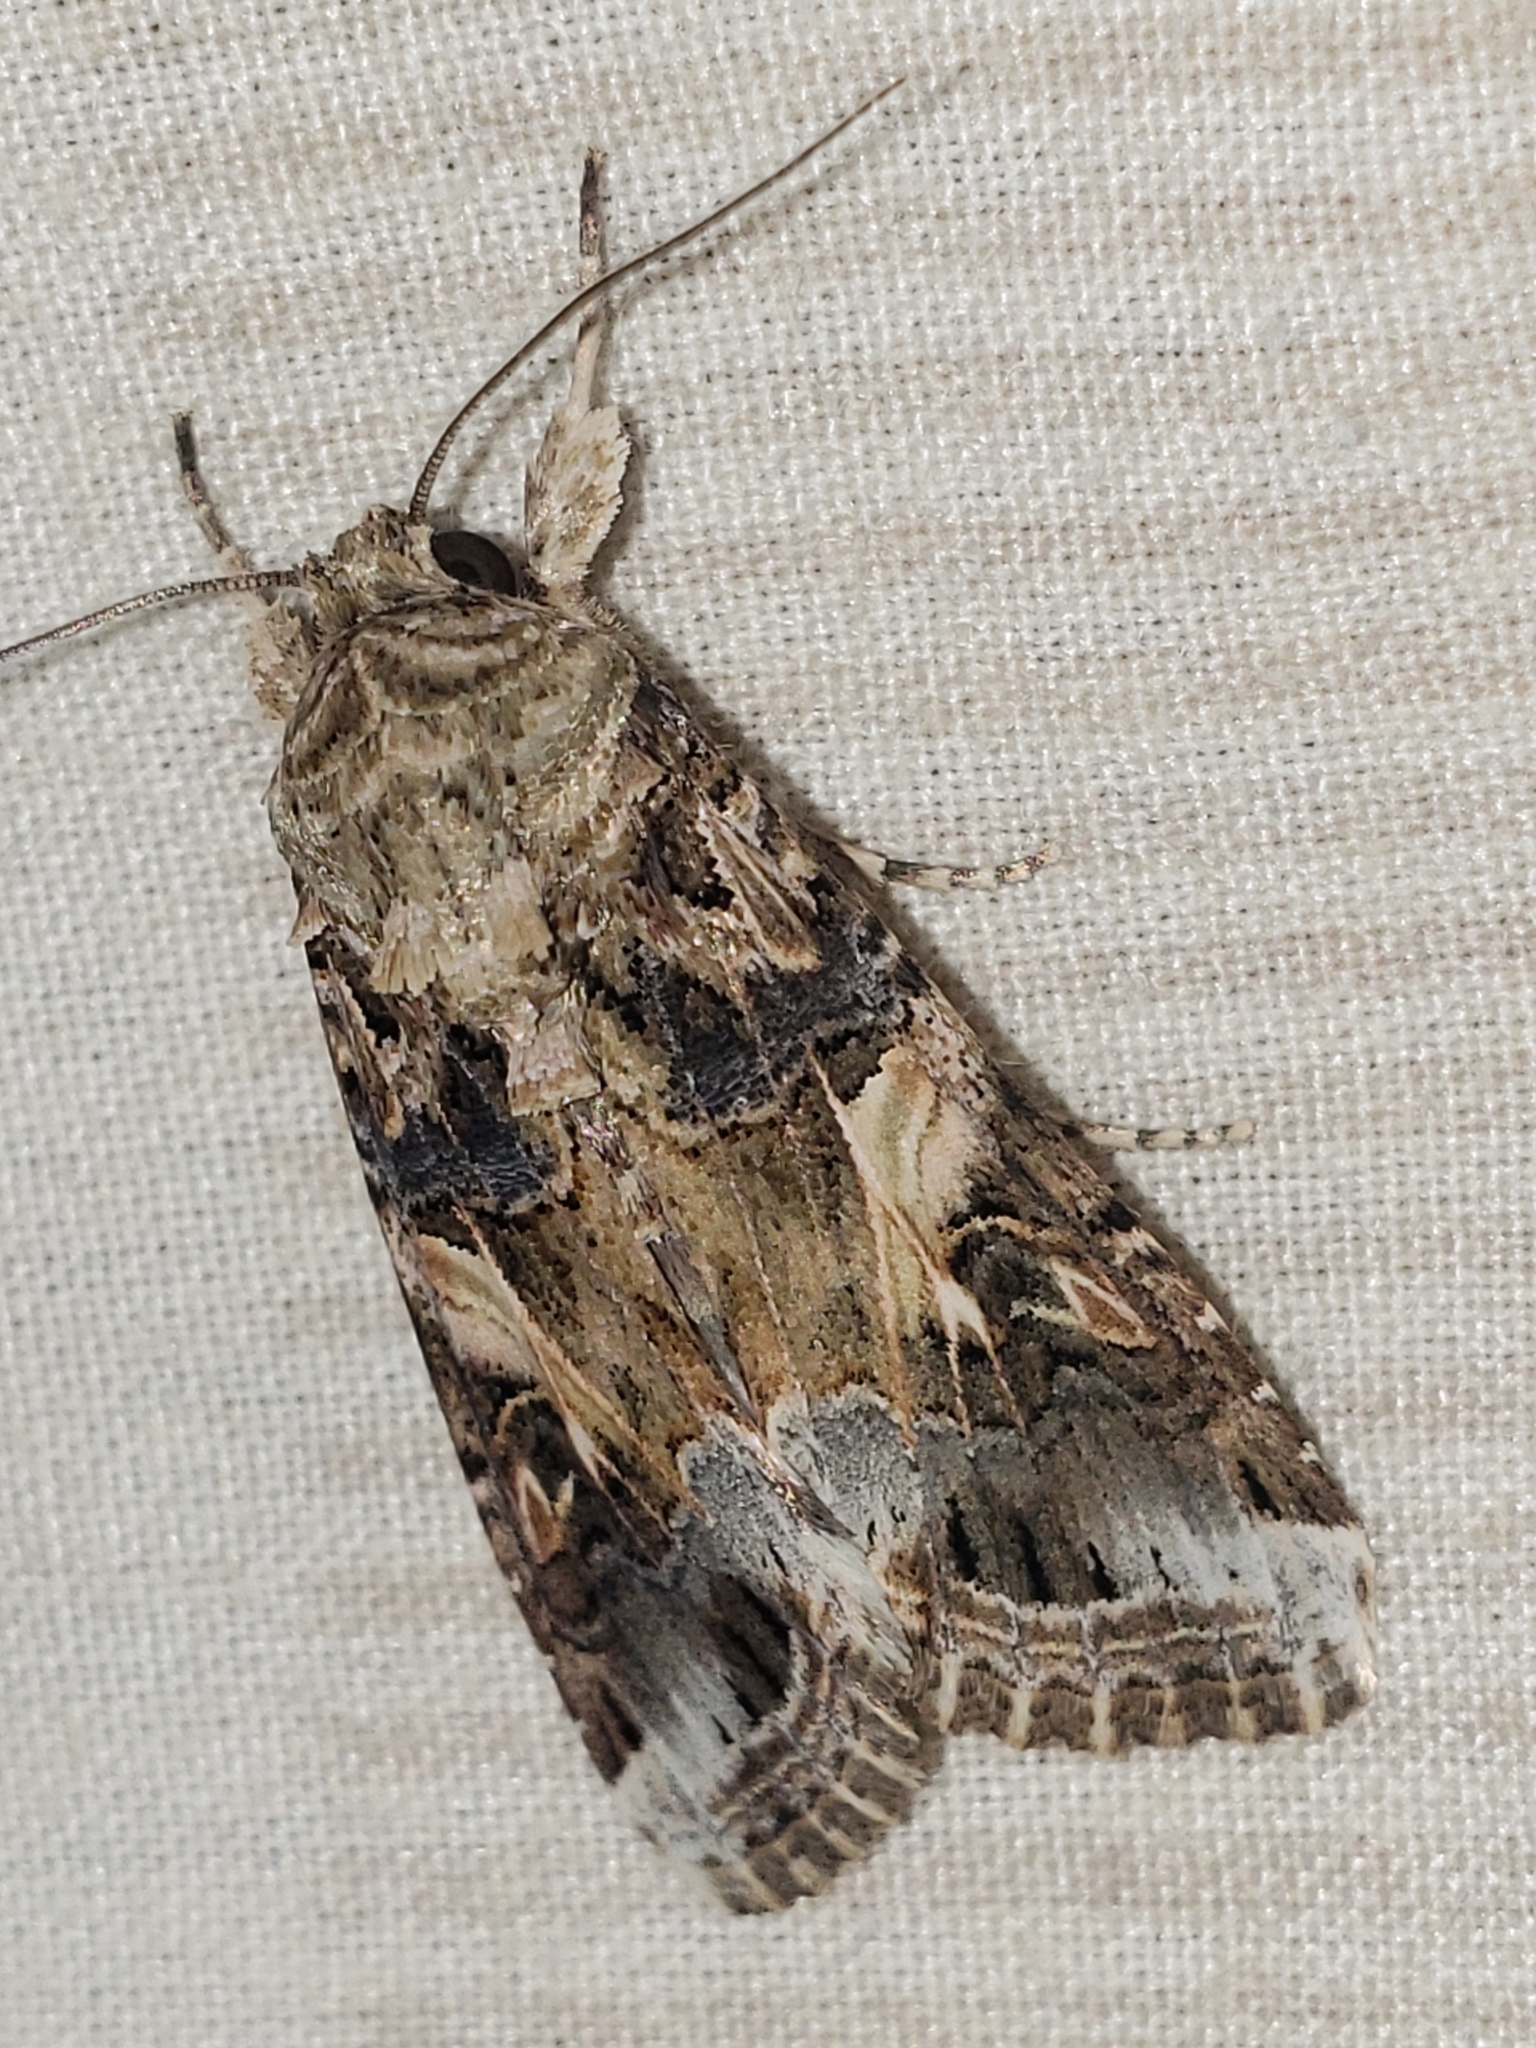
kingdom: Animalia
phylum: Arthropoda
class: Insecta
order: Lepidoptera
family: Noctuidae
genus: Spodoptera
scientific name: Spodoptera ornithogalli
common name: Yellow-striped armyworm
